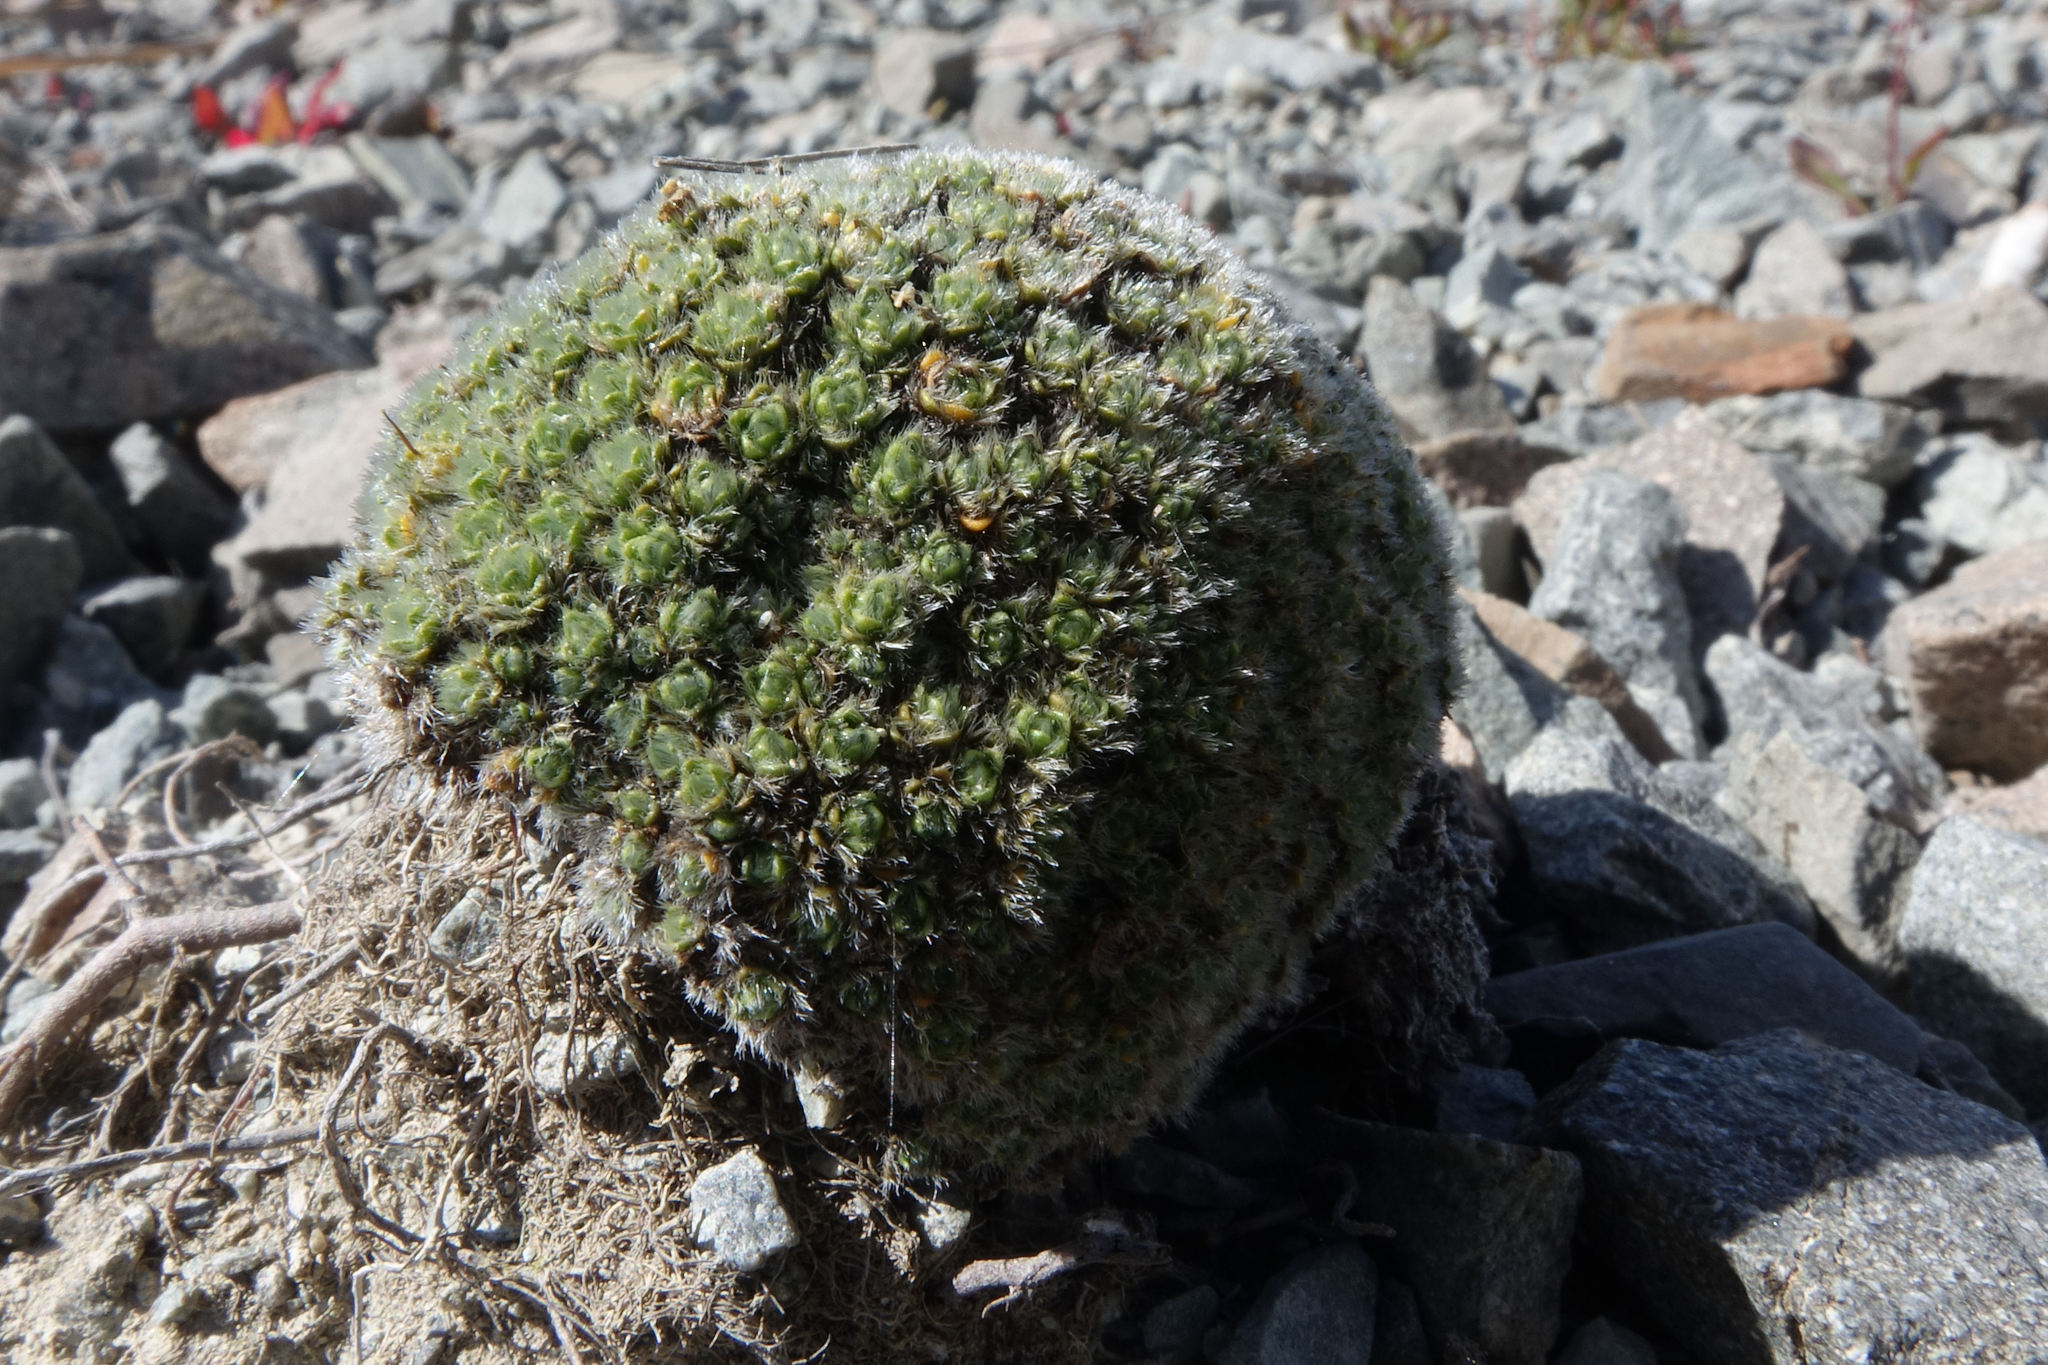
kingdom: Plantae
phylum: Tracheophyta
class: Magnoliopsida
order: Lamiales
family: Plantaginaceae
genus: Veronica
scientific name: Veronica pulvinaris
